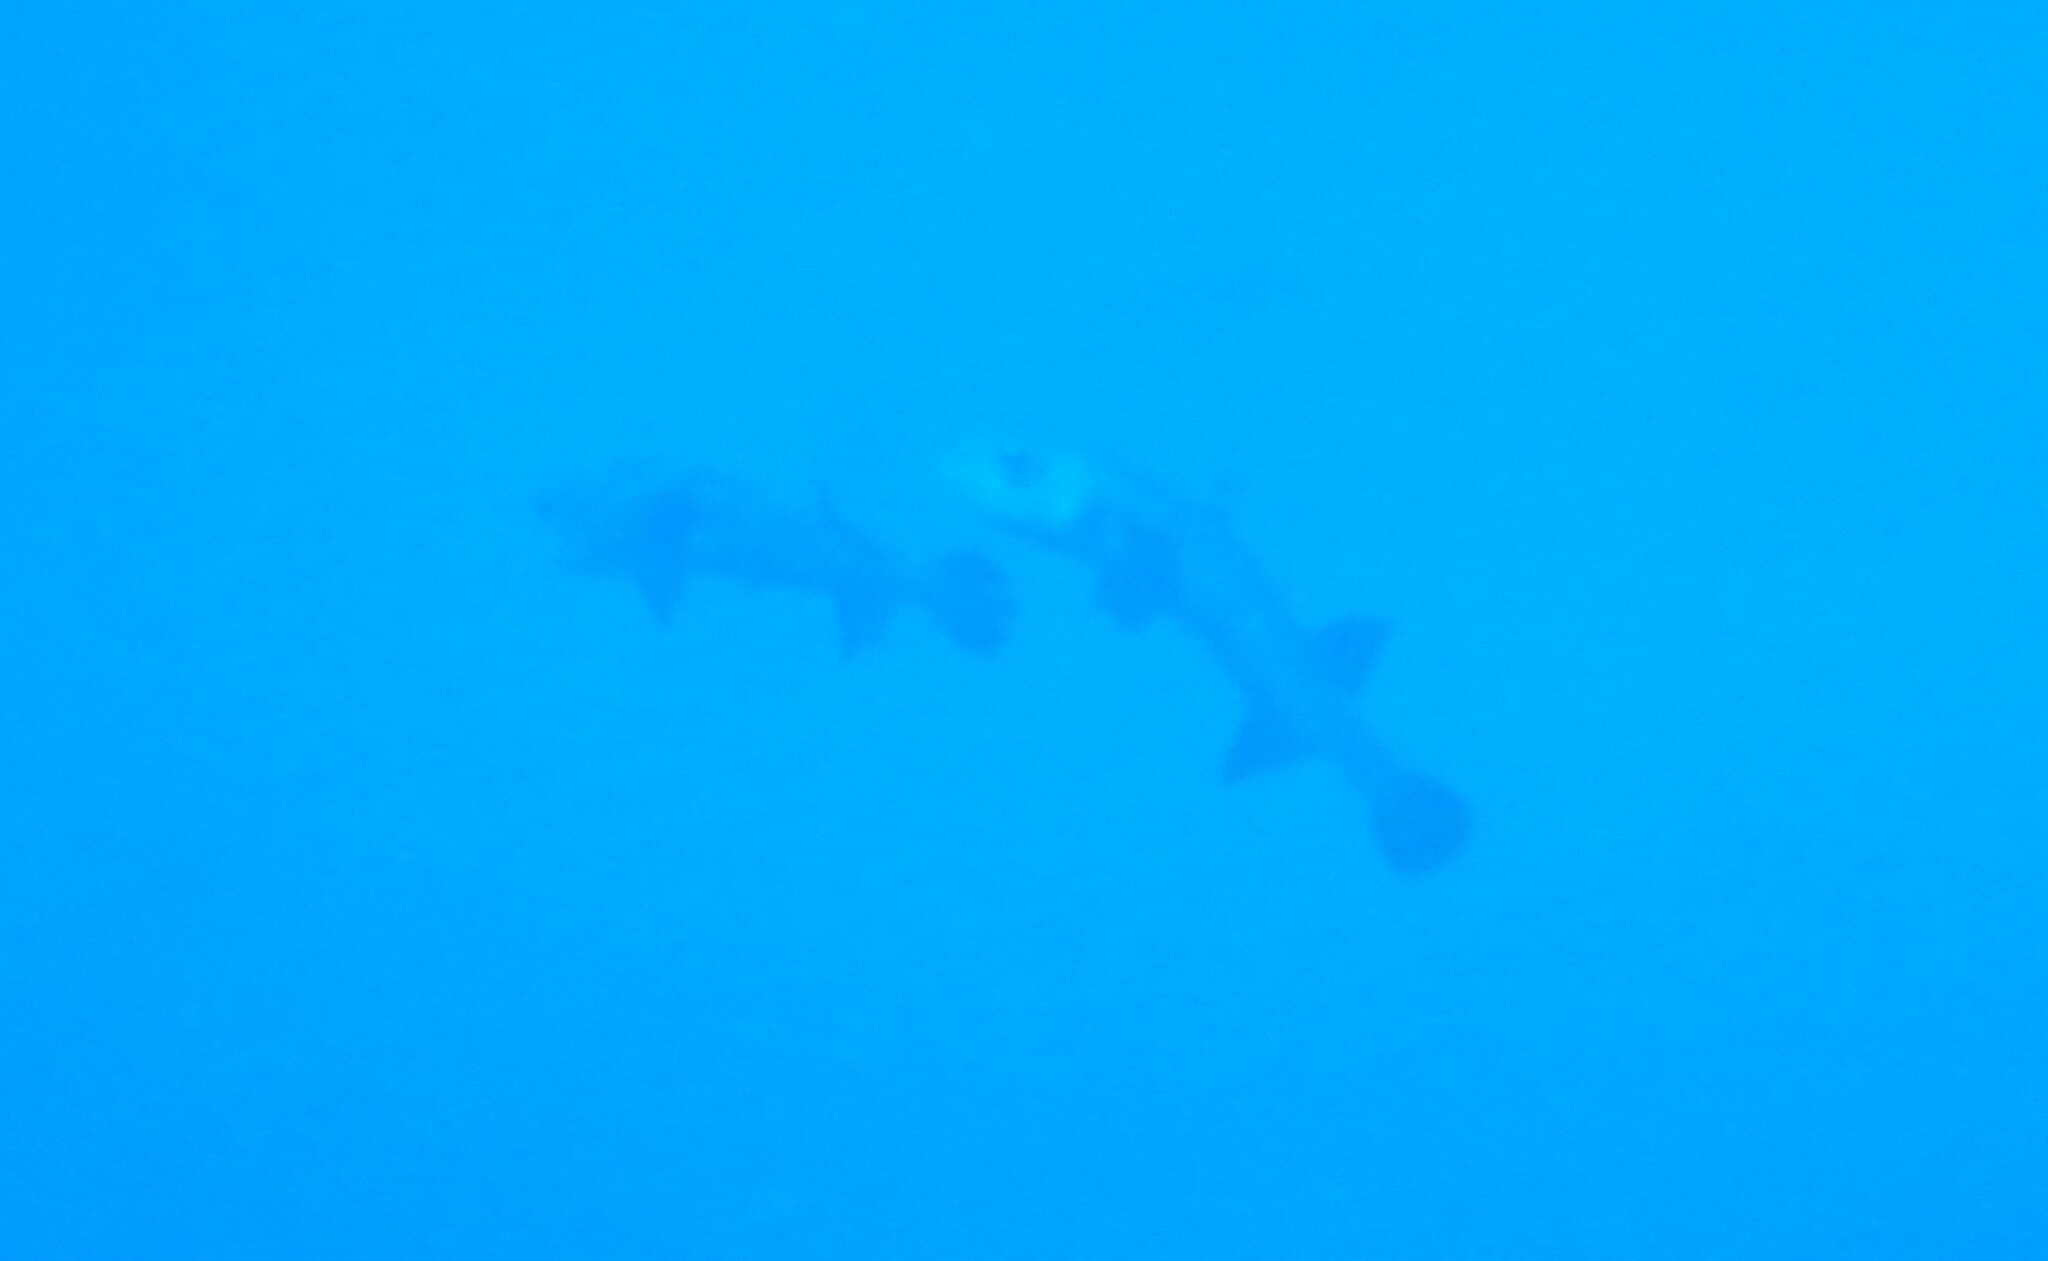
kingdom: Animalia
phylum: Chordata
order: Tetraodontiformes
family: Diodontidae
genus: Diodon
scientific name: Diodon hystrix
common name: Giant porcupinefish
